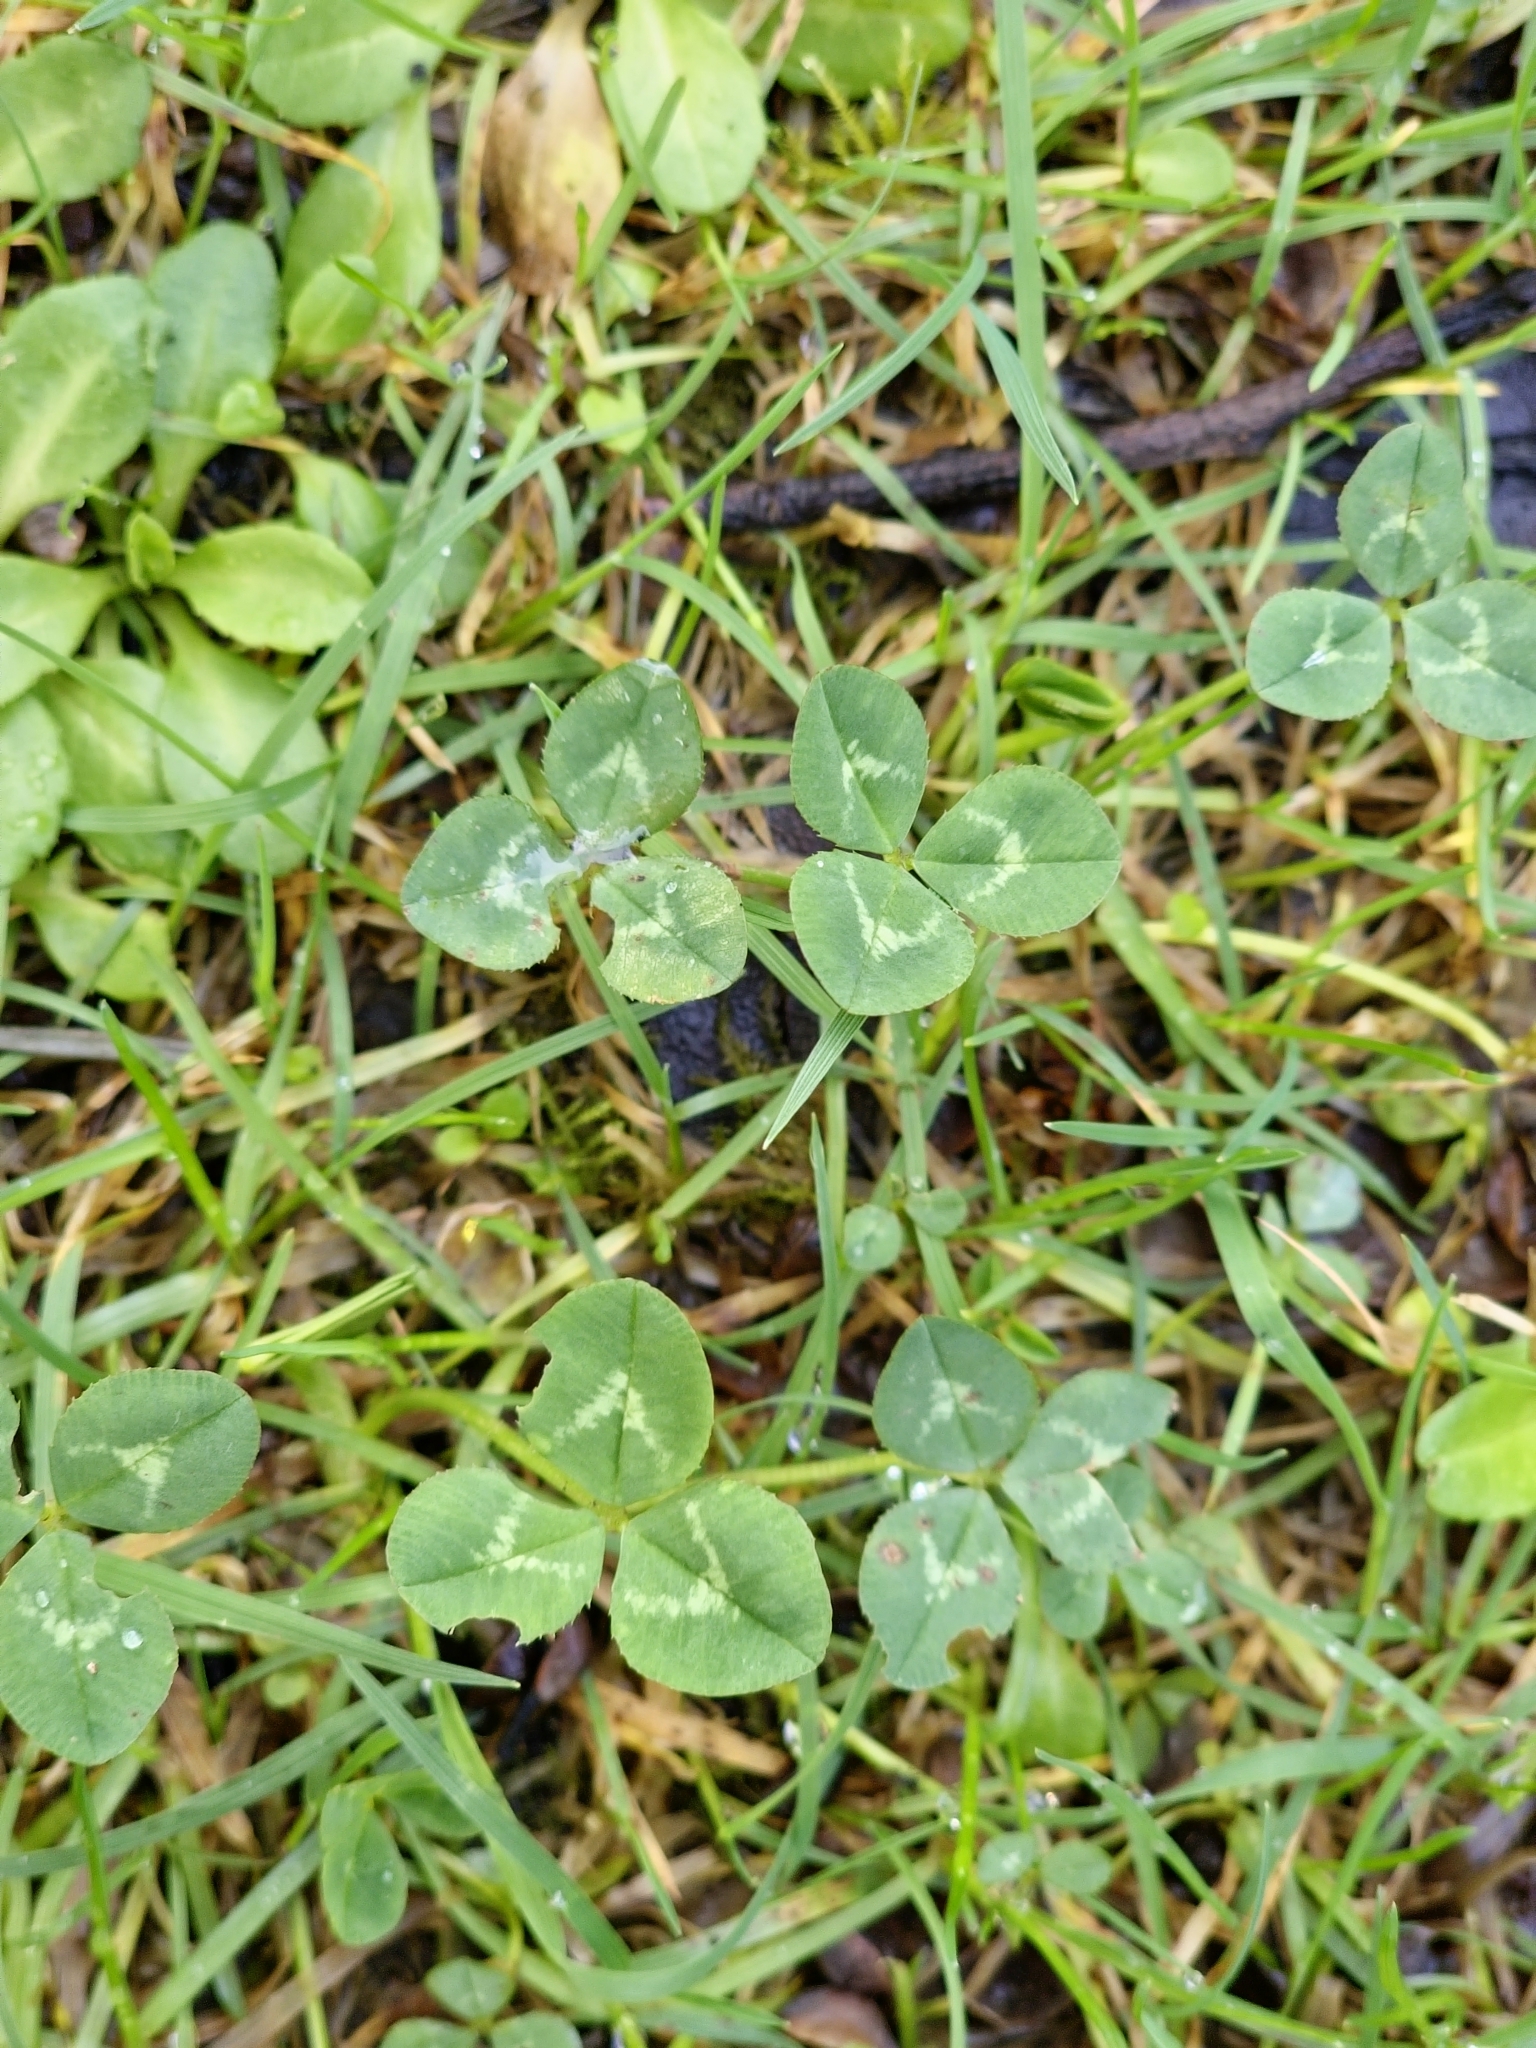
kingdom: Plantae
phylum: Tracheophyta
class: Magnoliopsida
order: Fabales
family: Fabaceae
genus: Trifolium
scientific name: Trifolium repens
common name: White clover
